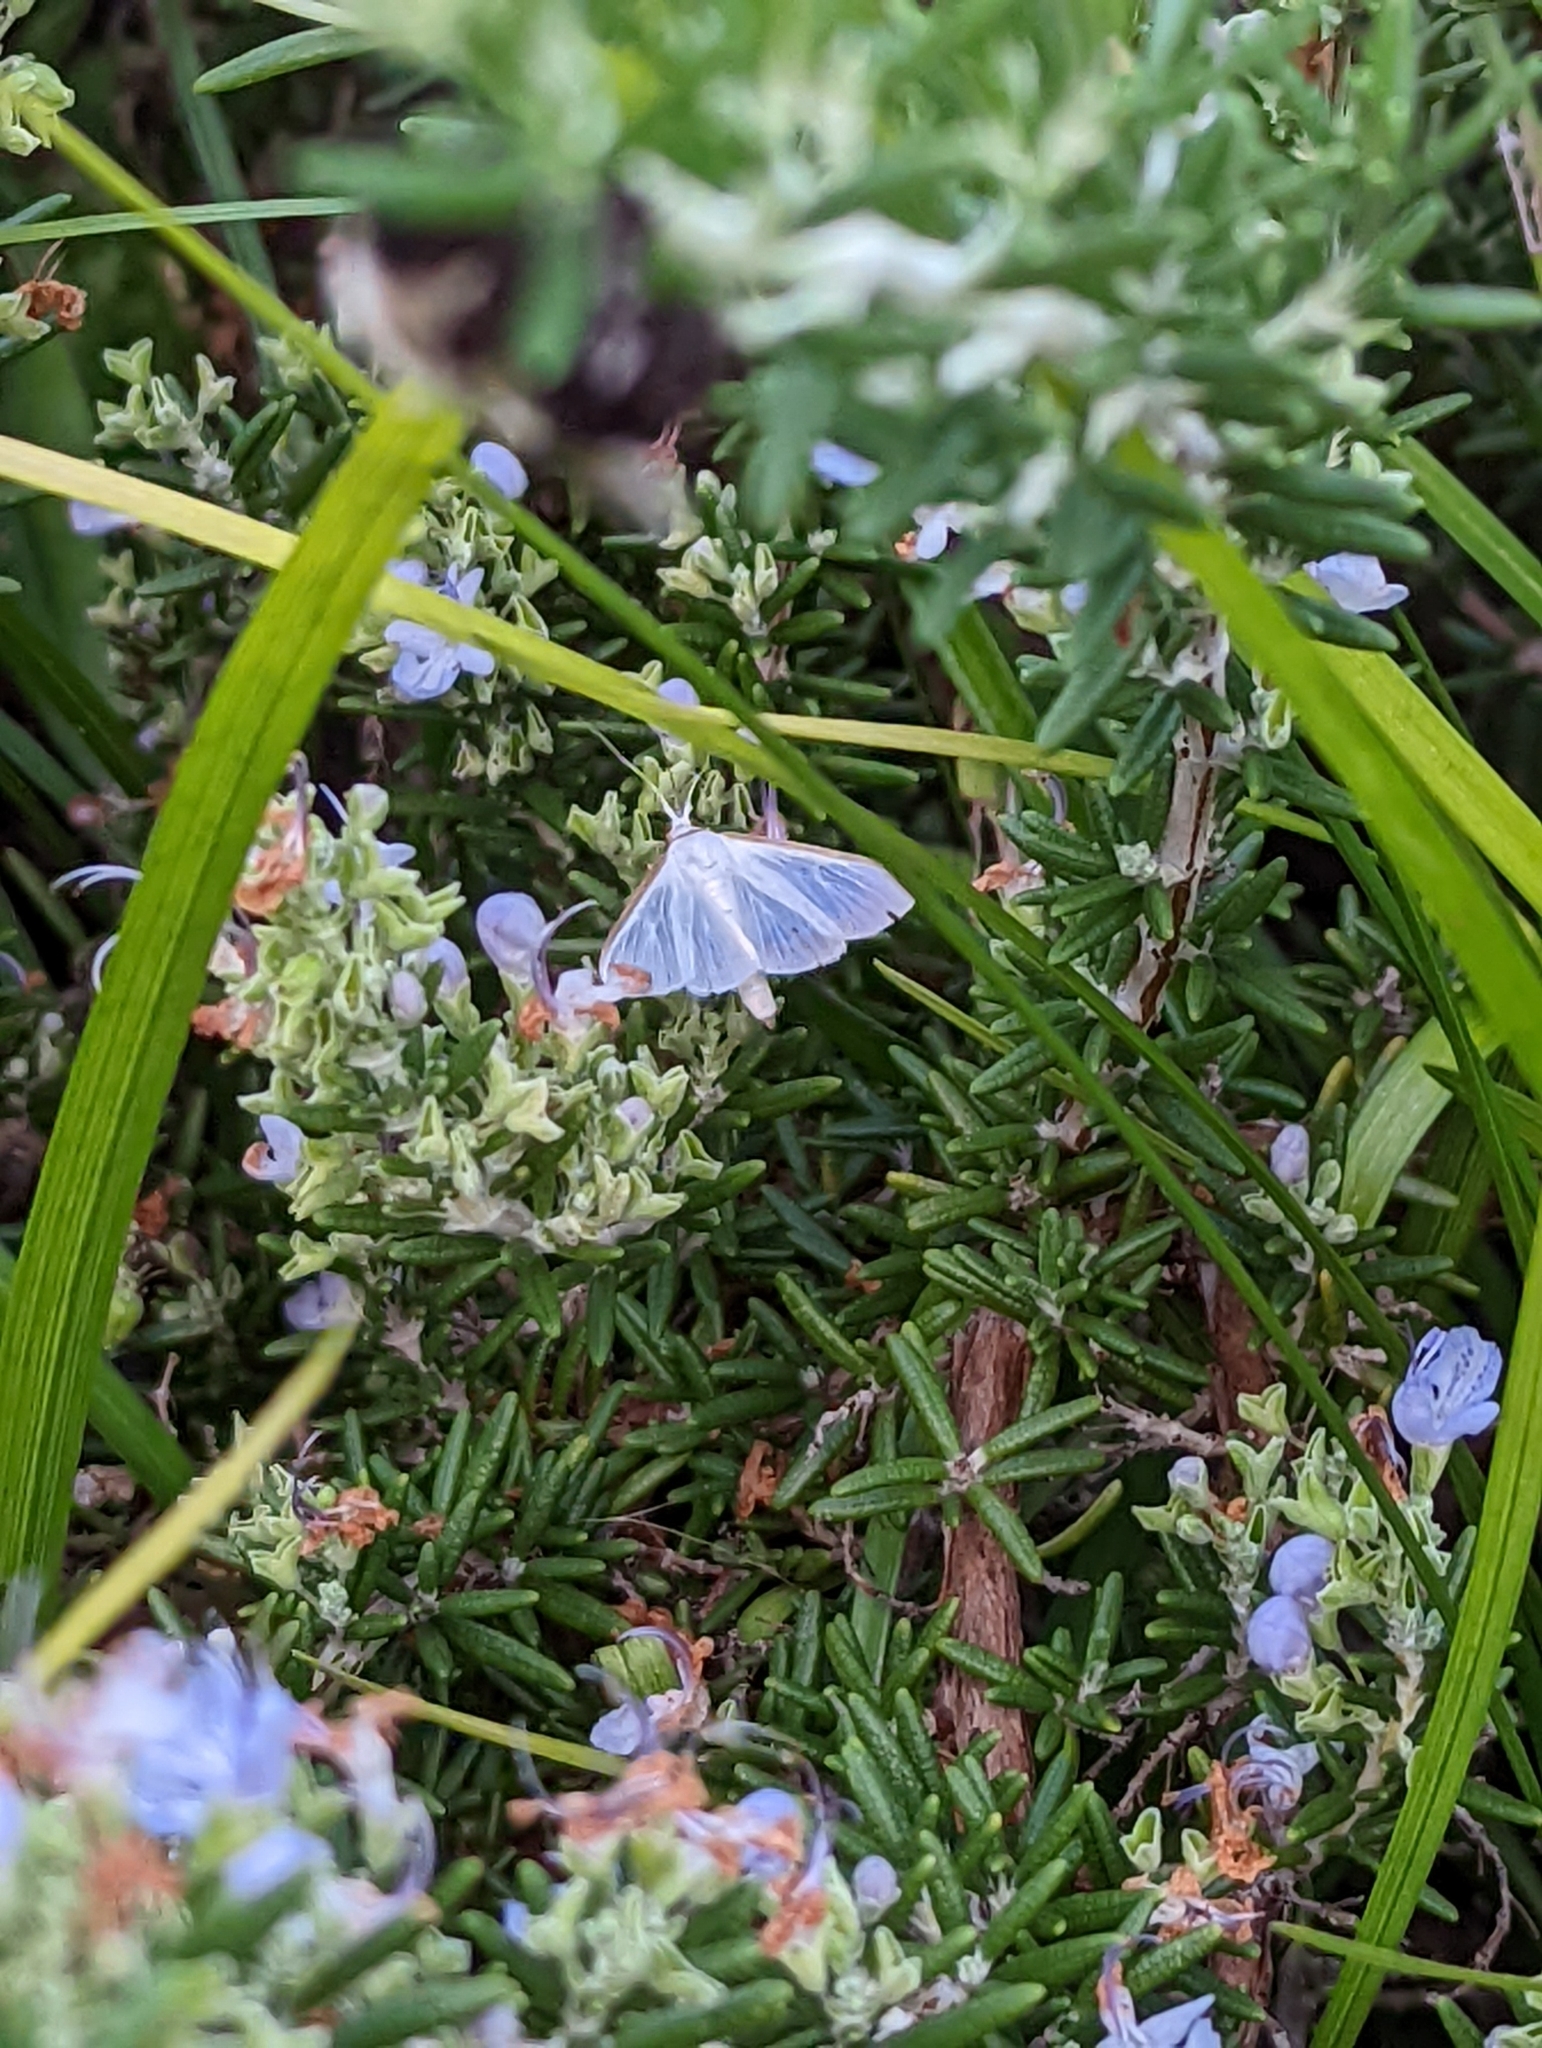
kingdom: Animalia
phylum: Arthropoda
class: Insecta
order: Lepidoptera
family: Crambidae
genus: Diaphania
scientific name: Diaphania costata
